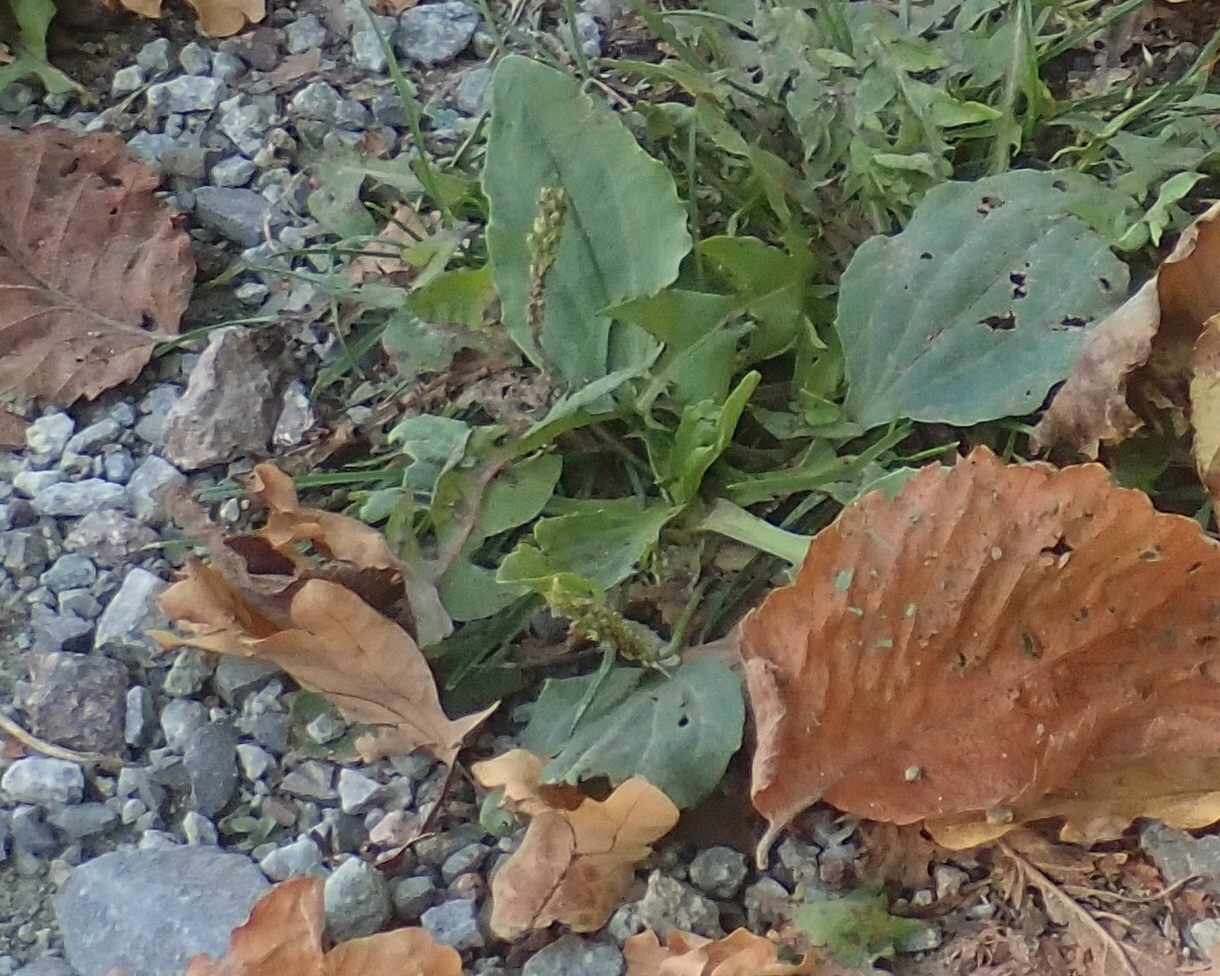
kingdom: Plantae
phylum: Tracheophyta
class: Magnoliopsida
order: Lamiales
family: Plantaginaceae
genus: Plantago
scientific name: Plantago major
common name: Common plantain
